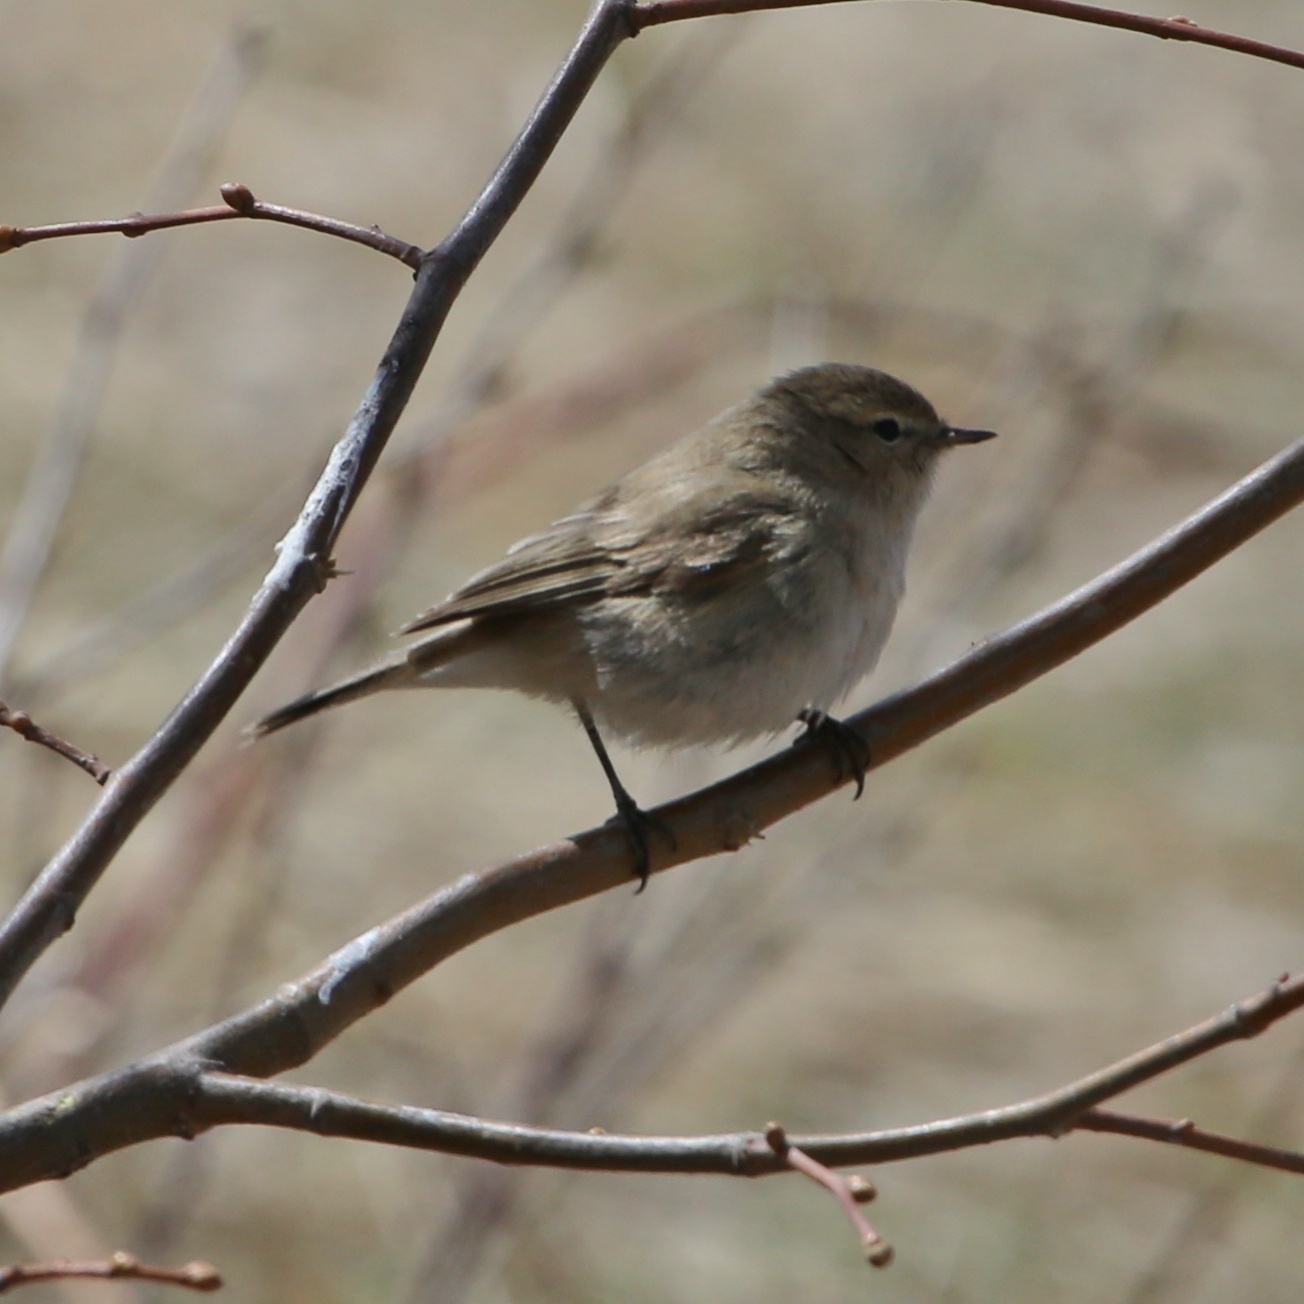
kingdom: Animalia
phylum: Chordata
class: Aves
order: Passeriformes
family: Phylloscopidae
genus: Phylloscopus
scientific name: Phylloscopus collybita
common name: Common chiffchaff
